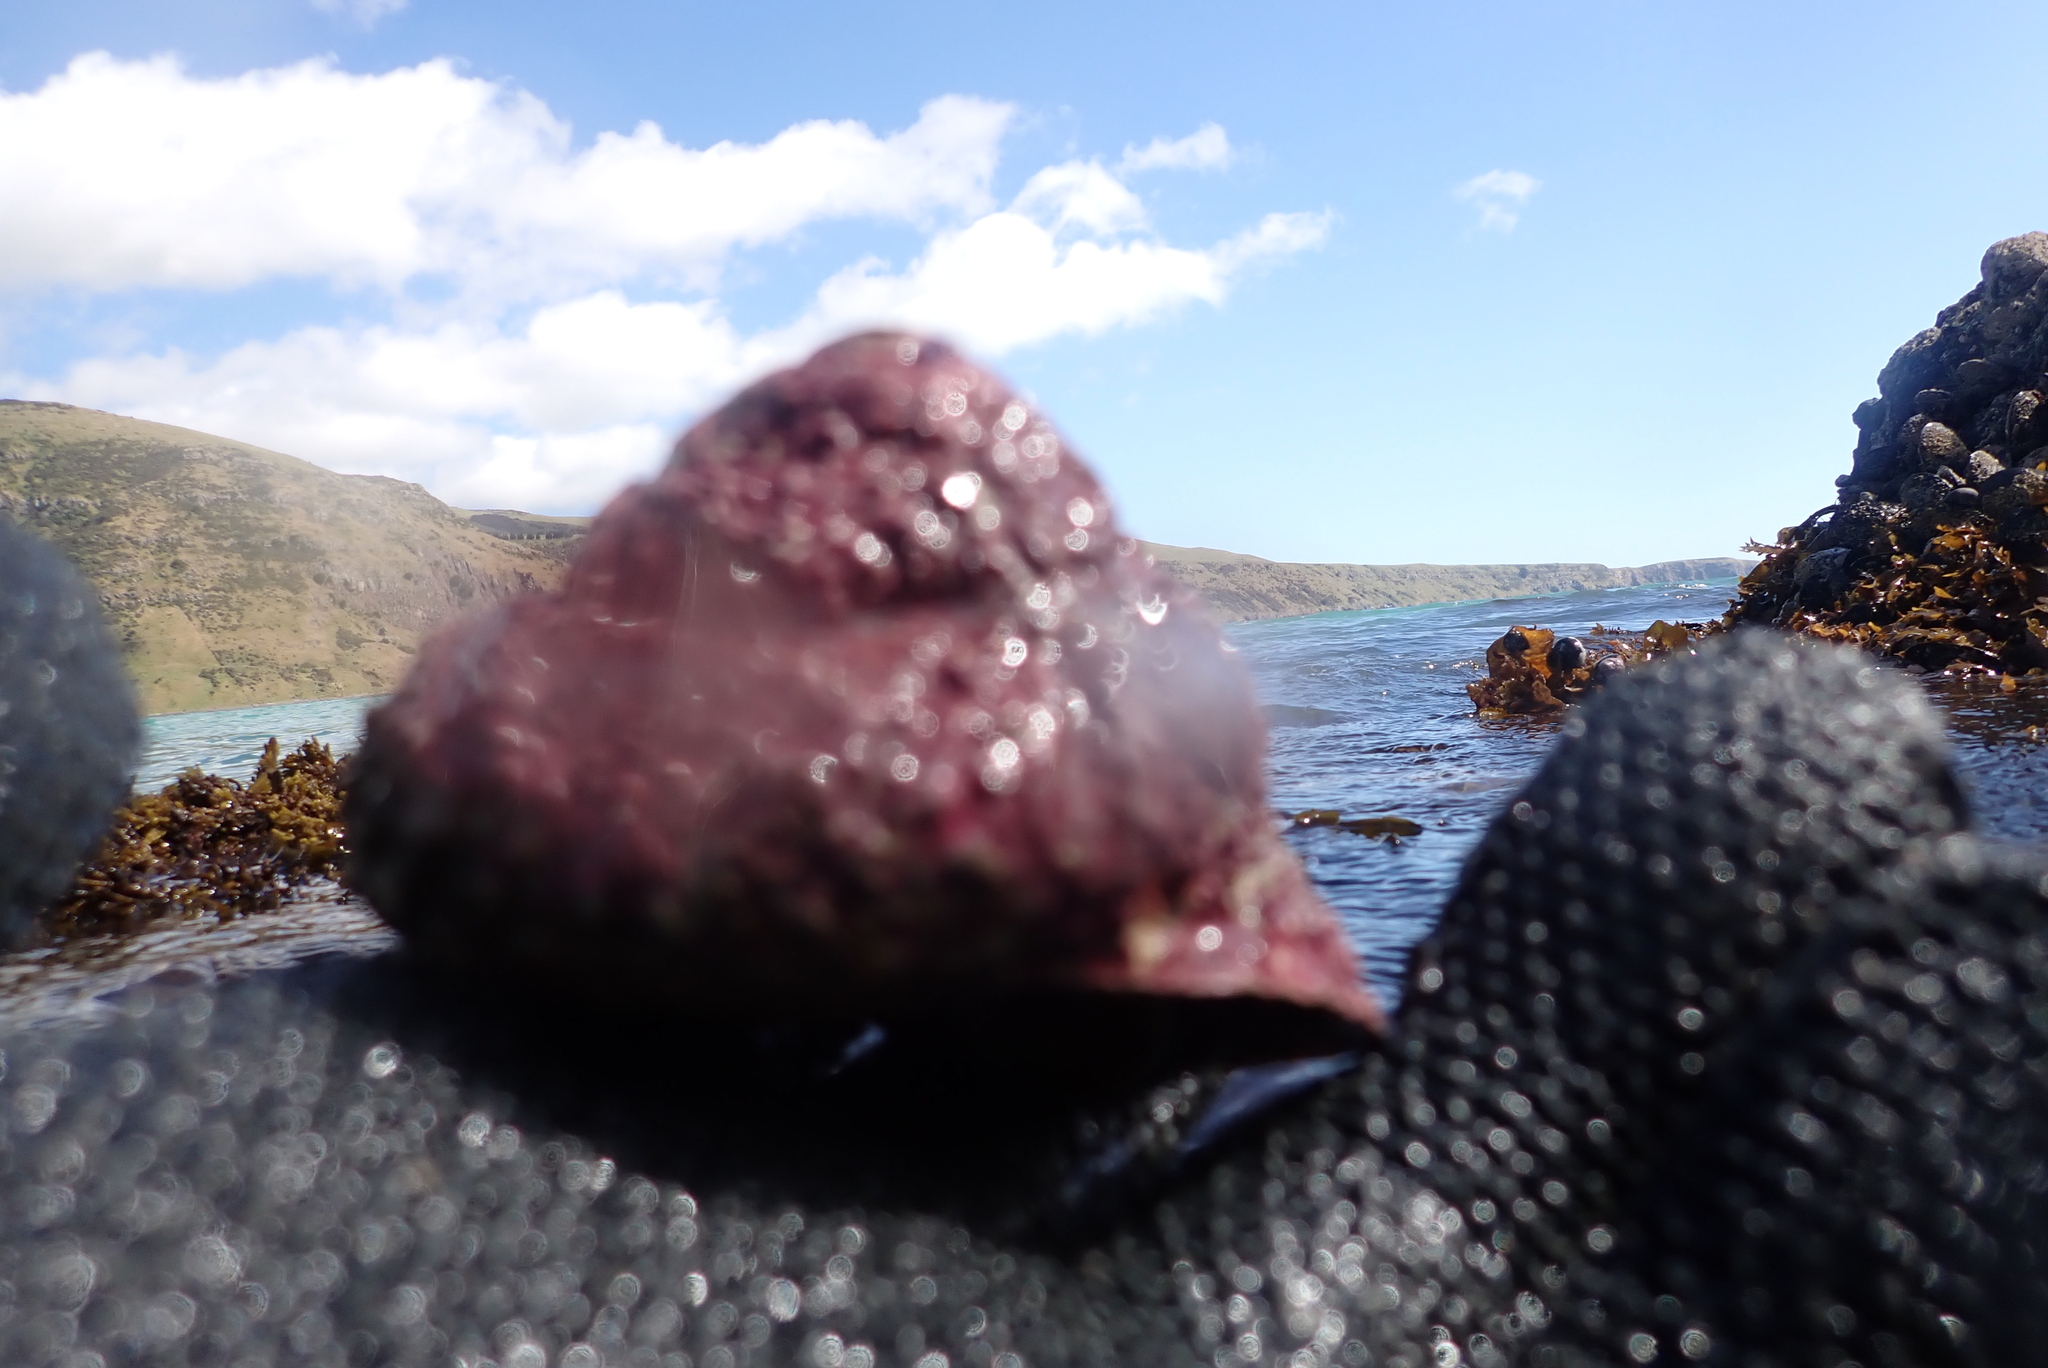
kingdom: Animalia
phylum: Mollusca
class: Gastropoda
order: Trochida
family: Turbinidae
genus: Cookia
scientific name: Cookia sulcata
